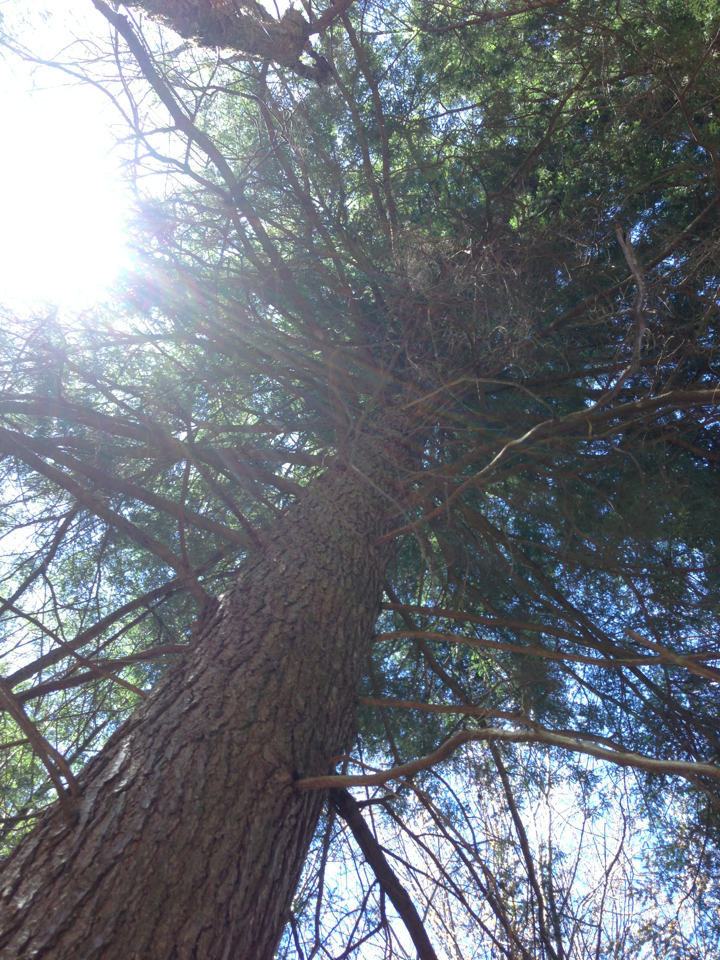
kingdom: Plantae
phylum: Tracheophyta
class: Pinopsida
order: Pinales
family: Pinaceae
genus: Tsuga
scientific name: Tsuga canadensis
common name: Eastern hemlock
